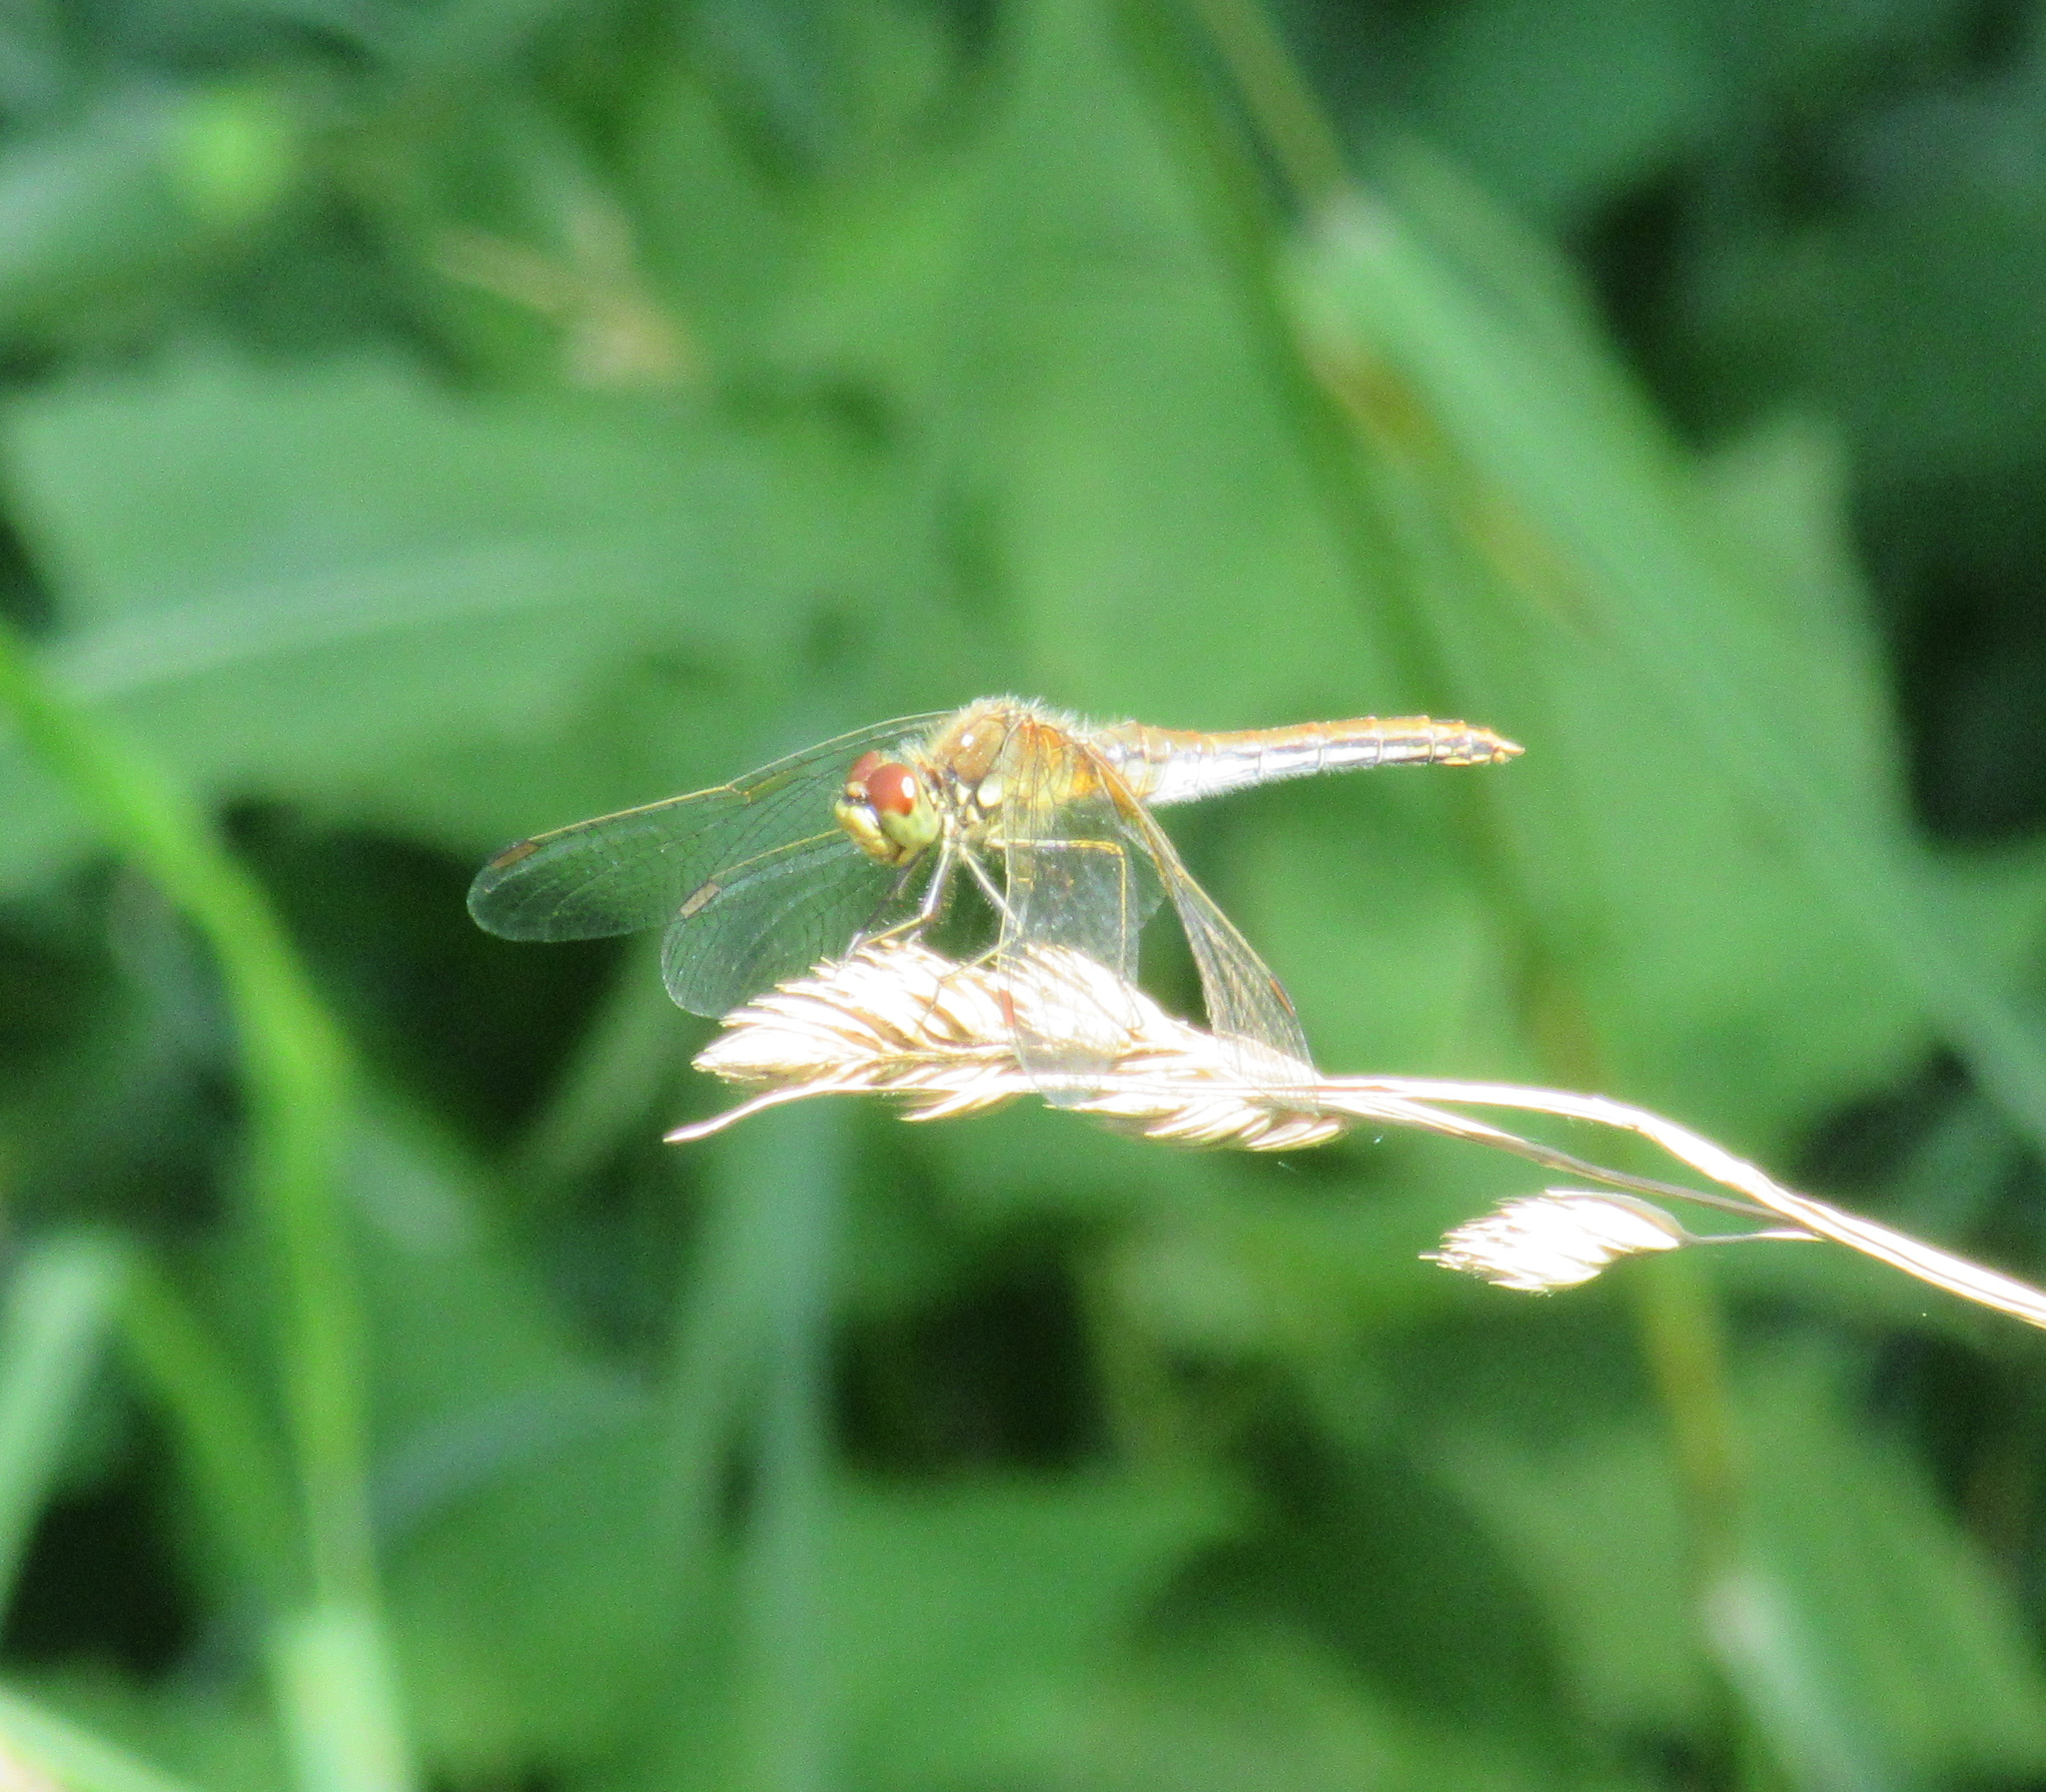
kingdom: Animalia
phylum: Arthropoda
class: Insecta
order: Odonata
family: Libellulidae
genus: Sympetrum
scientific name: Sympetrum flaveolum
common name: Yellow-winged darter
